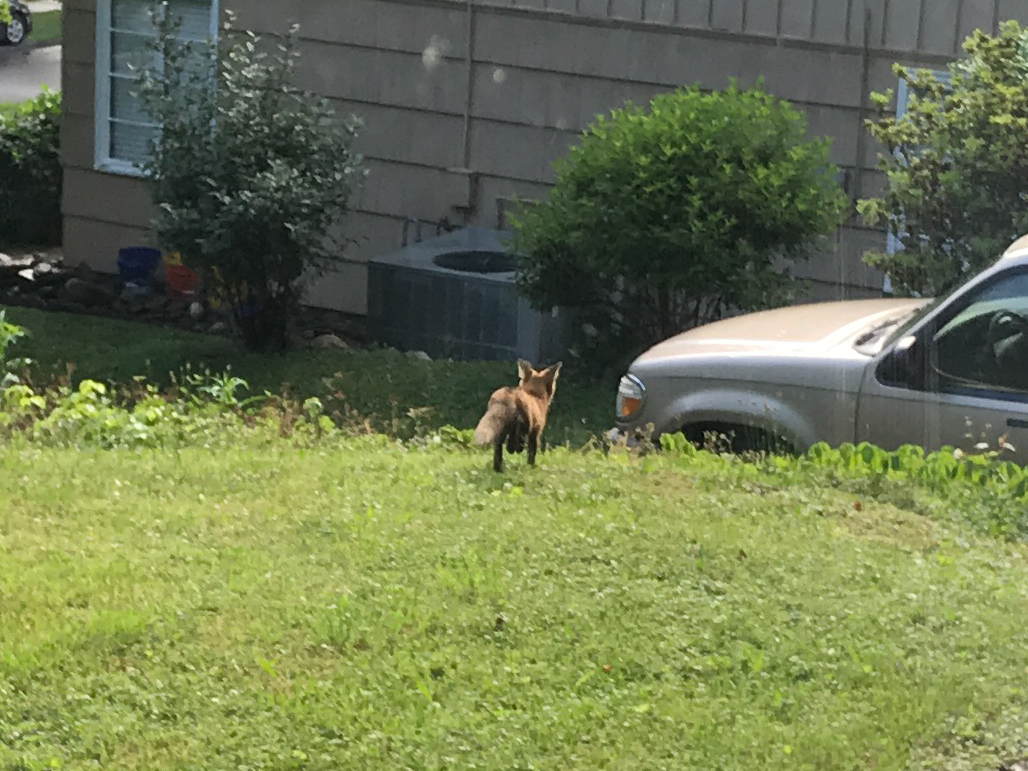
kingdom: Animalia
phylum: Chordata
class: Mammalia
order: Carnivora
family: Canidae
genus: Vulpes
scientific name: Vulpes vulpes
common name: Red fox
